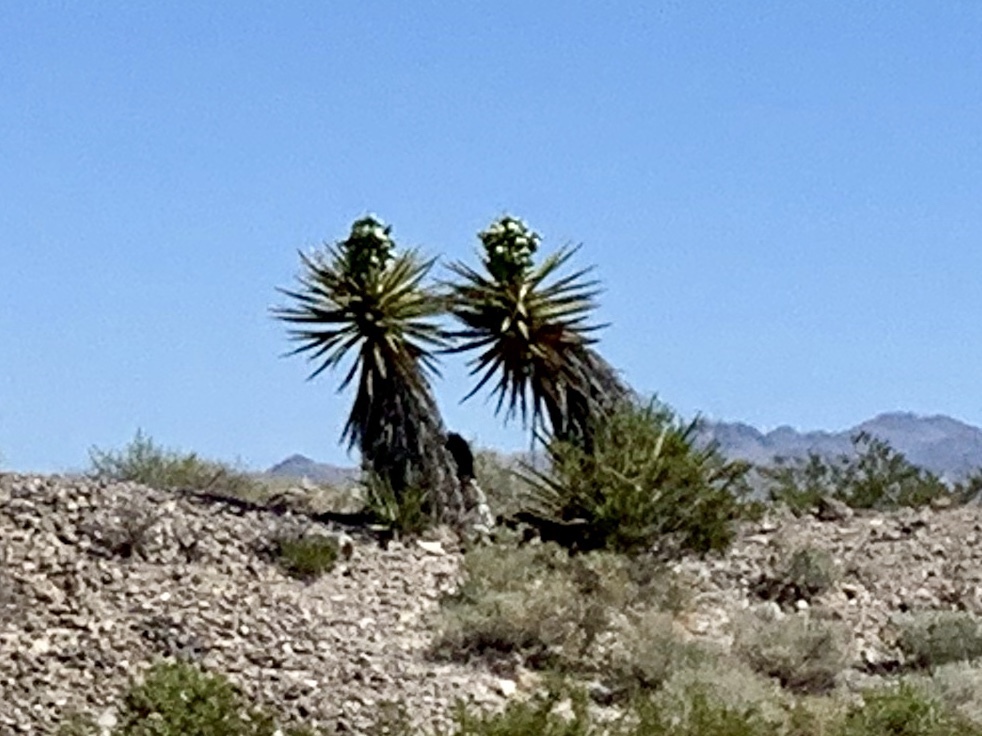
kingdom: Plantae
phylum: Tracheophyta
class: Liliopsida
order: Asparagales
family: Asparagaceae
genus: Yucca
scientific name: Yucca schidigera
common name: Mojave yucca
